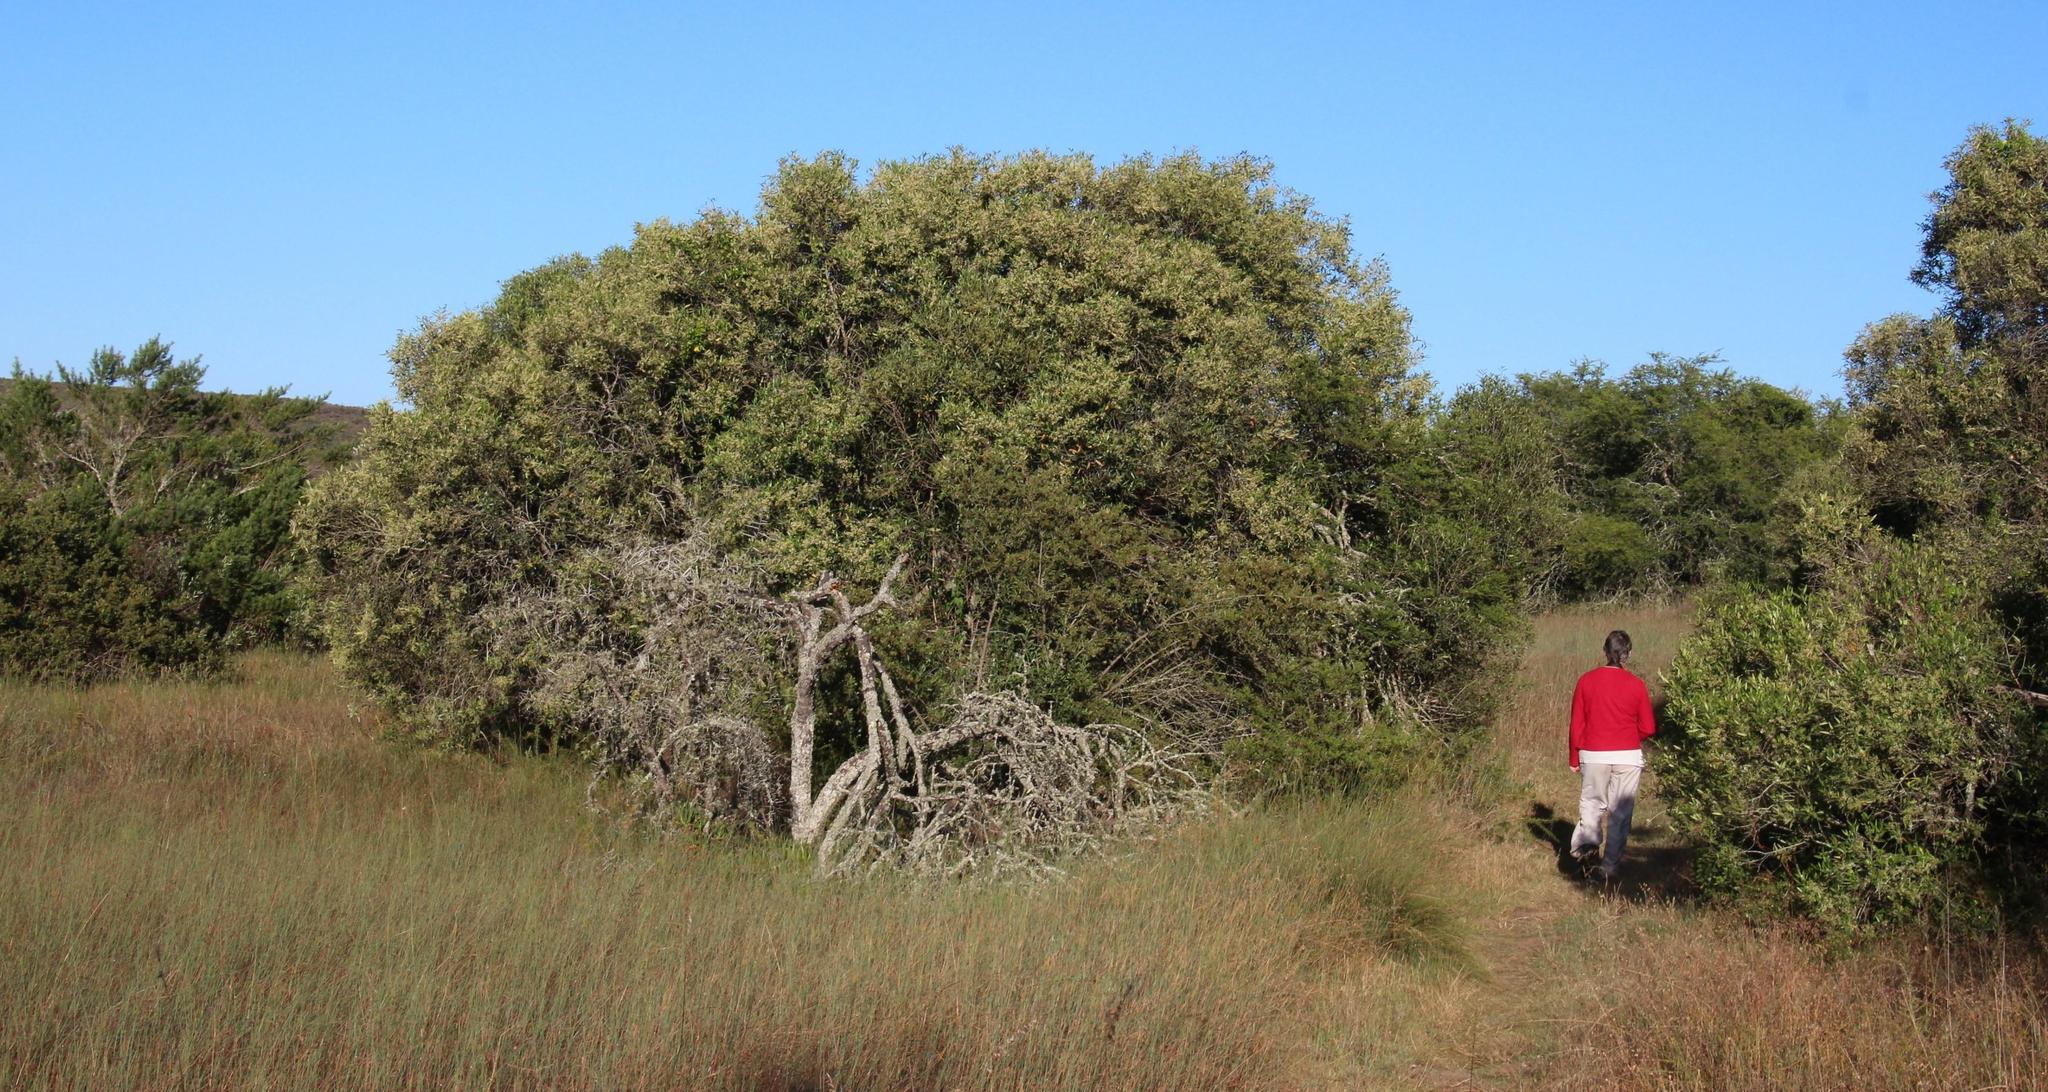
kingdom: Plantae
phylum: Tracheophyta
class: Magnoliopsida
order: Lamiales
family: Oleaceae
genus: Olea
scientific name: Olea europaea
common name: Olive
